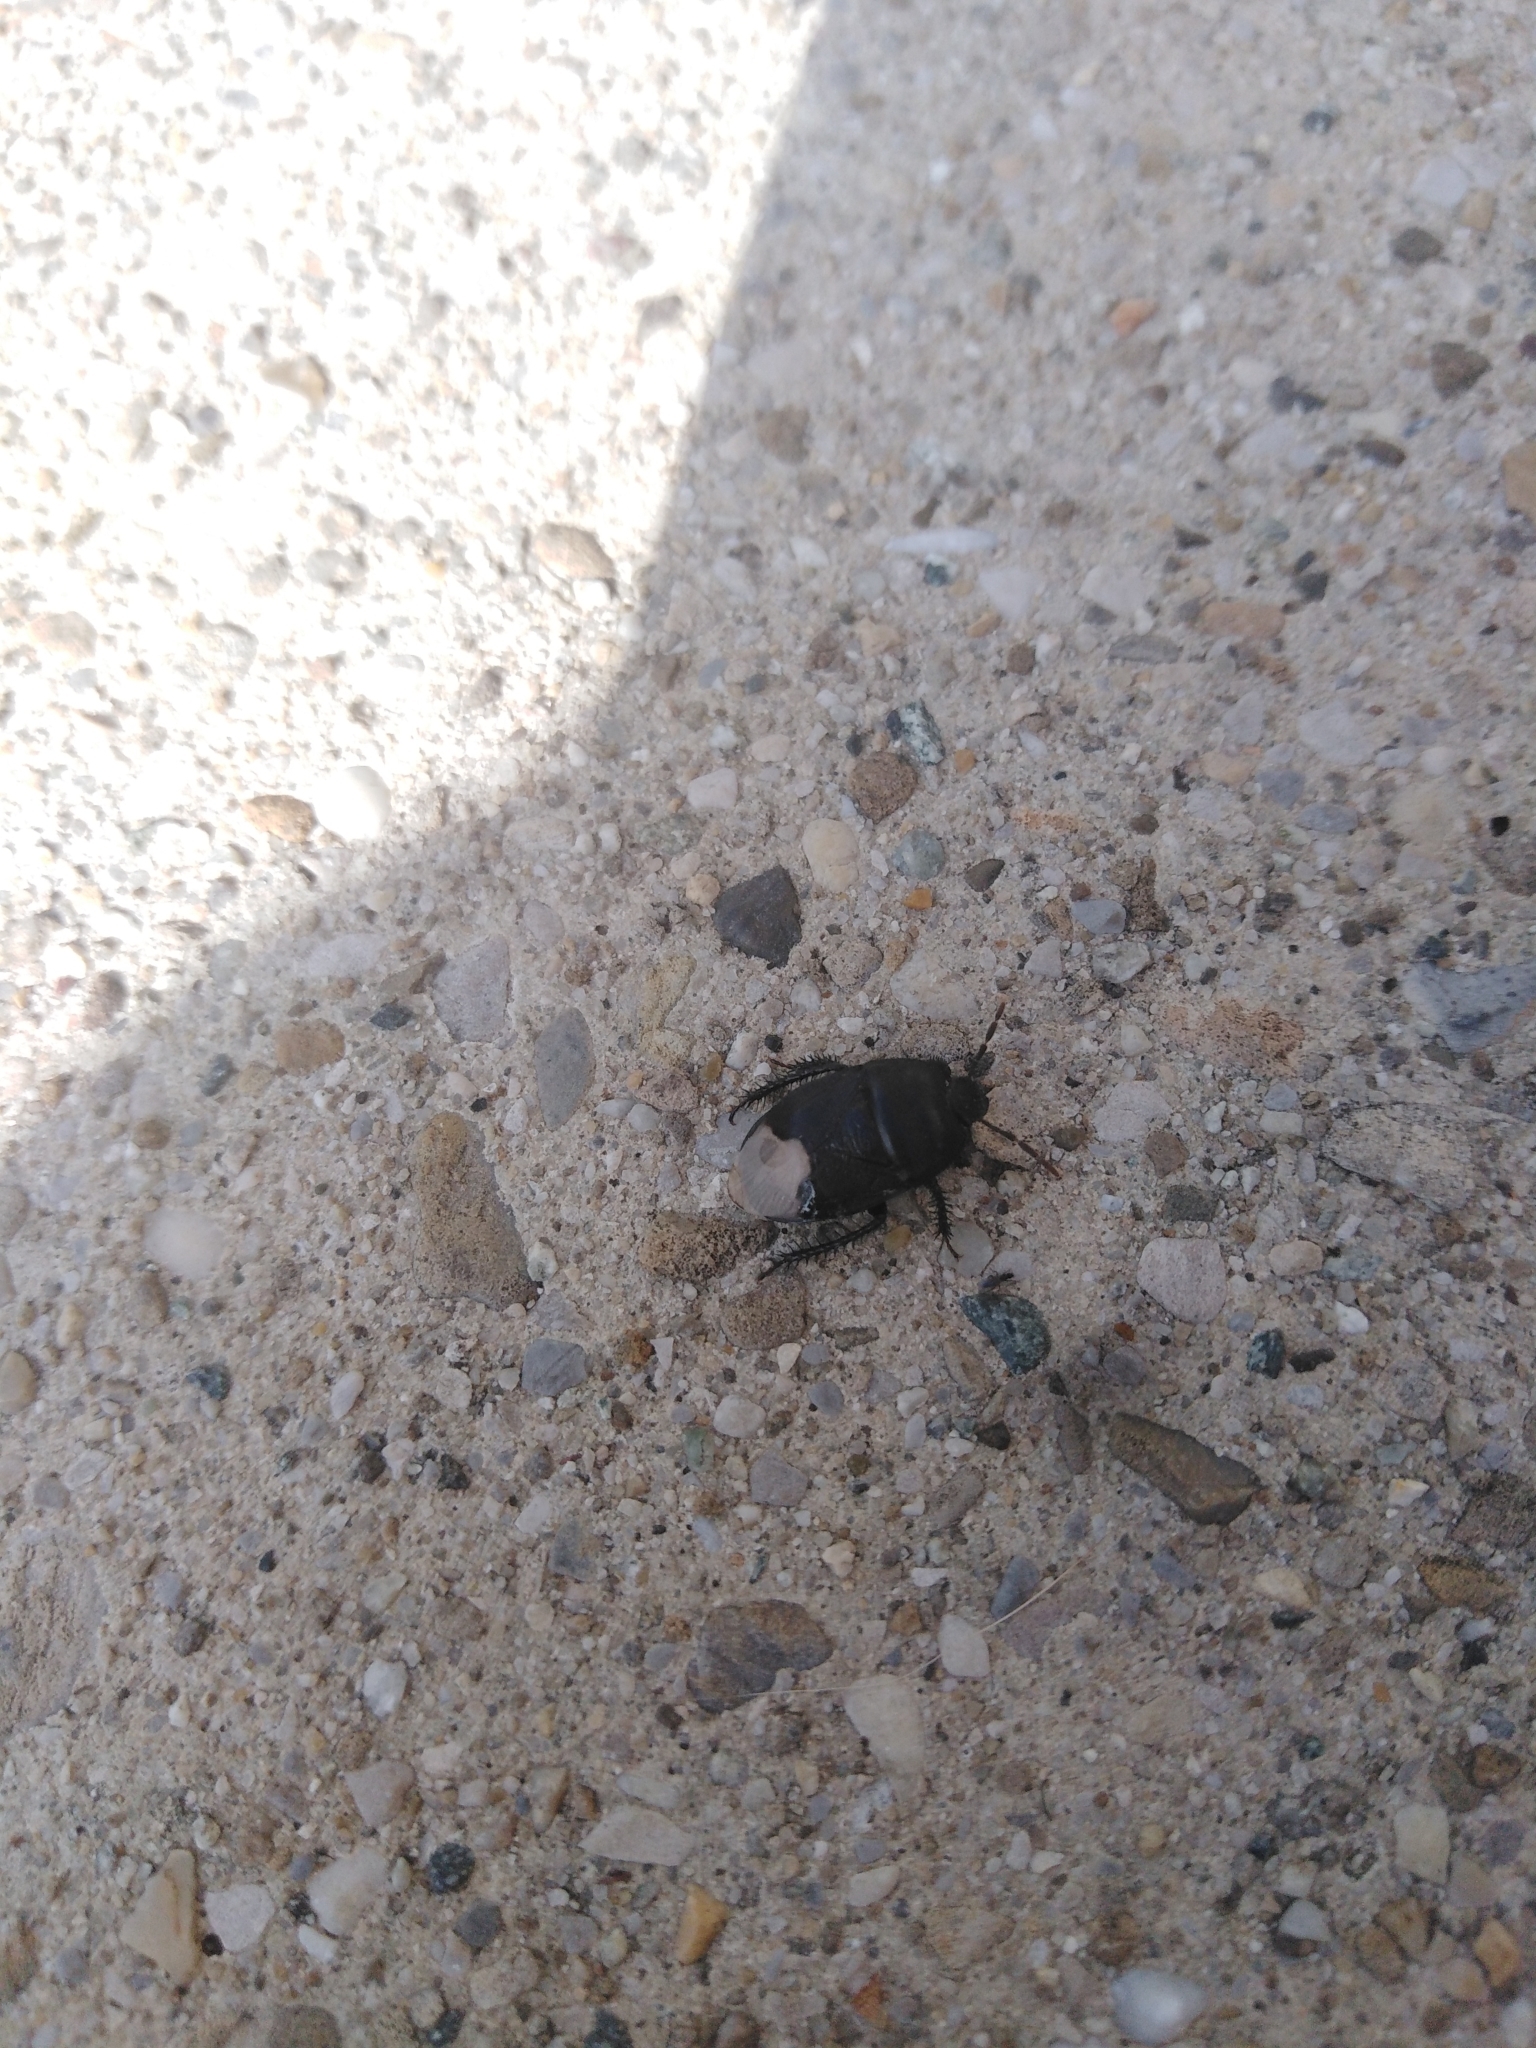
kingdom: Animalia
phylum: Arthropoda
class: Insecta
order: Hemiptera
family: Cydnidae
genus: Cydnus
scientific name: Cydnus aterrimus
